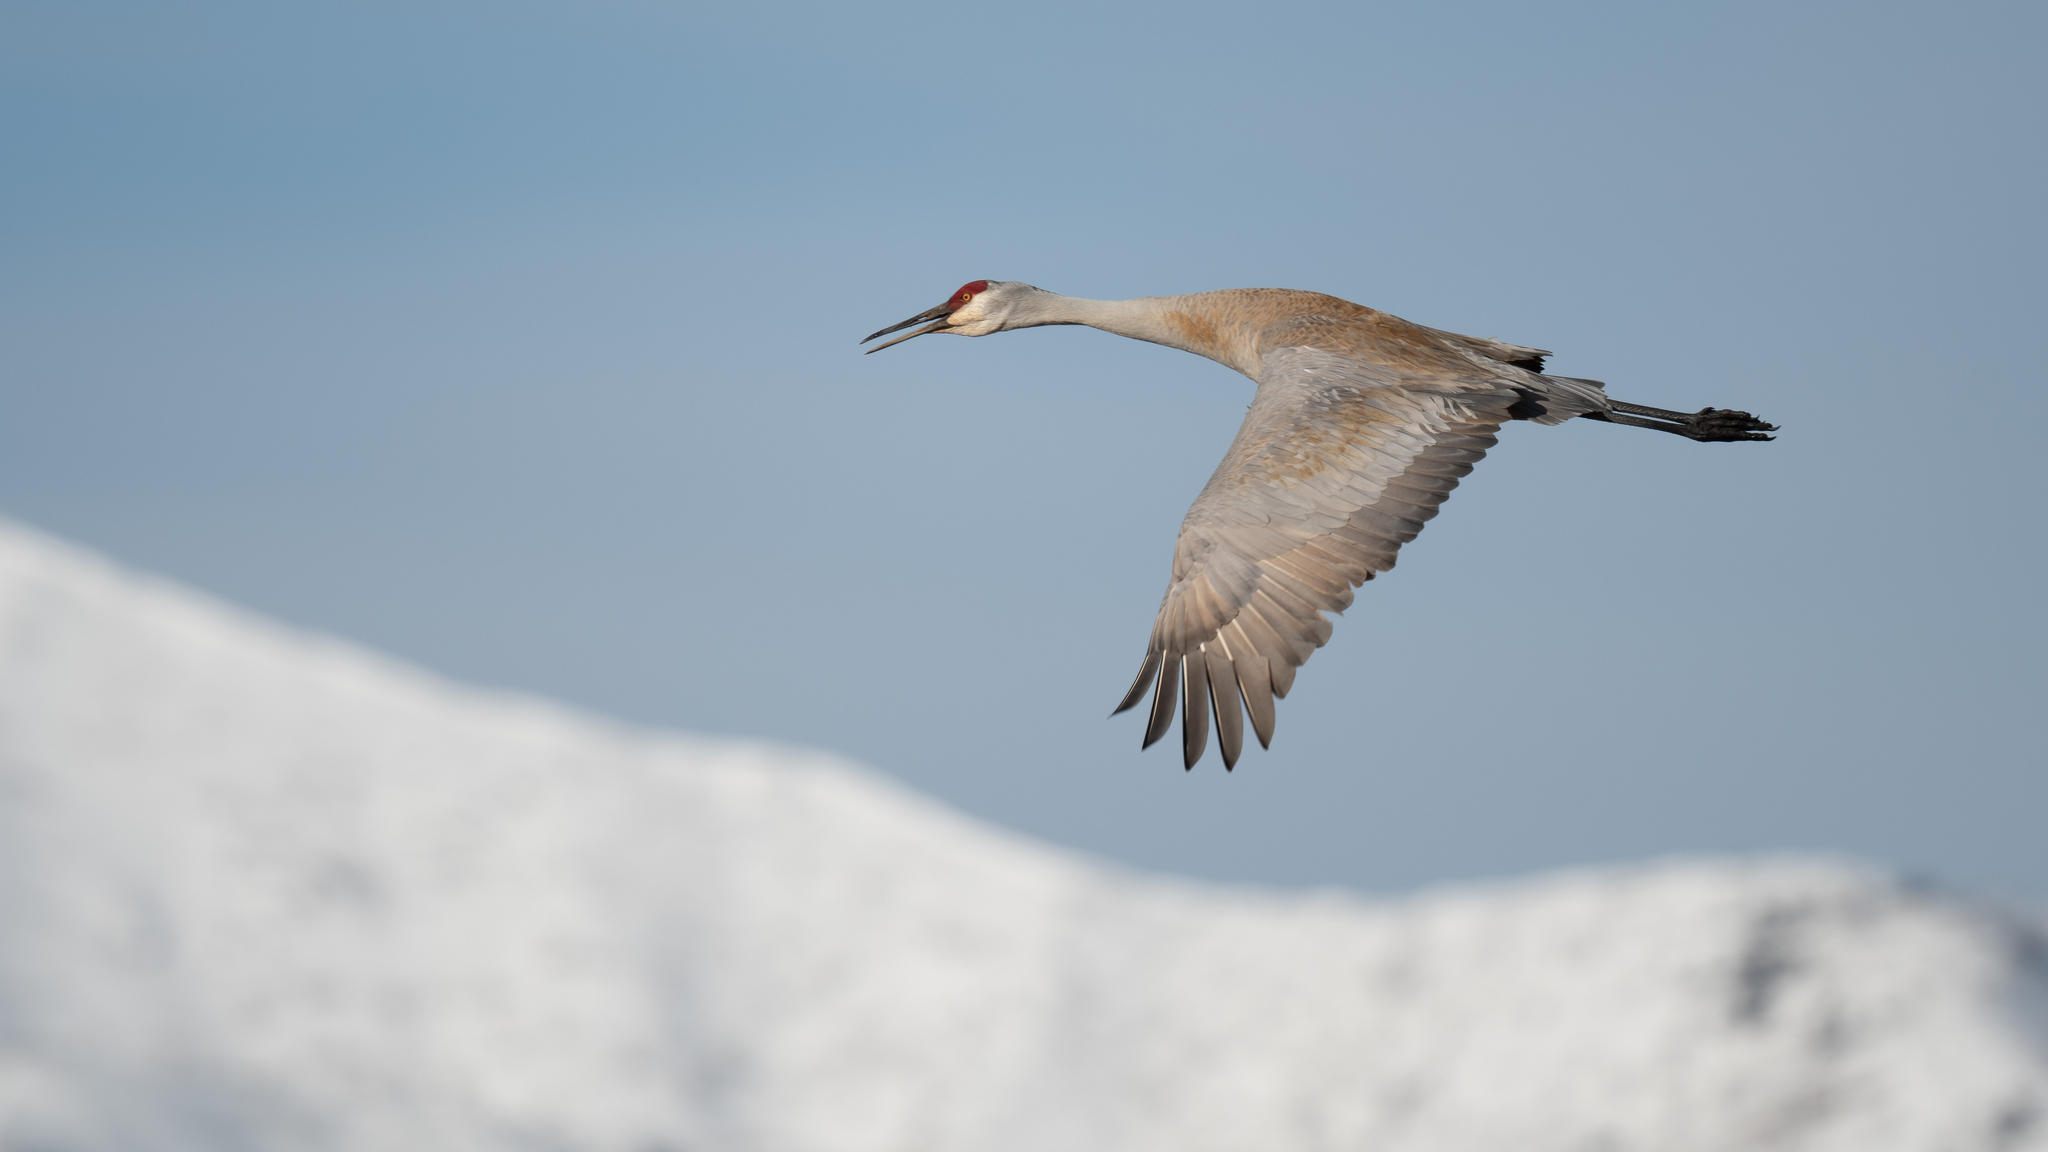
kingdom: Animalia
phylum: Chordata
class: Aves
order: Gruiformes
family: Gruidae
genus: Grus
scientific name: Grus canadensis
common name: Sandhill crane
